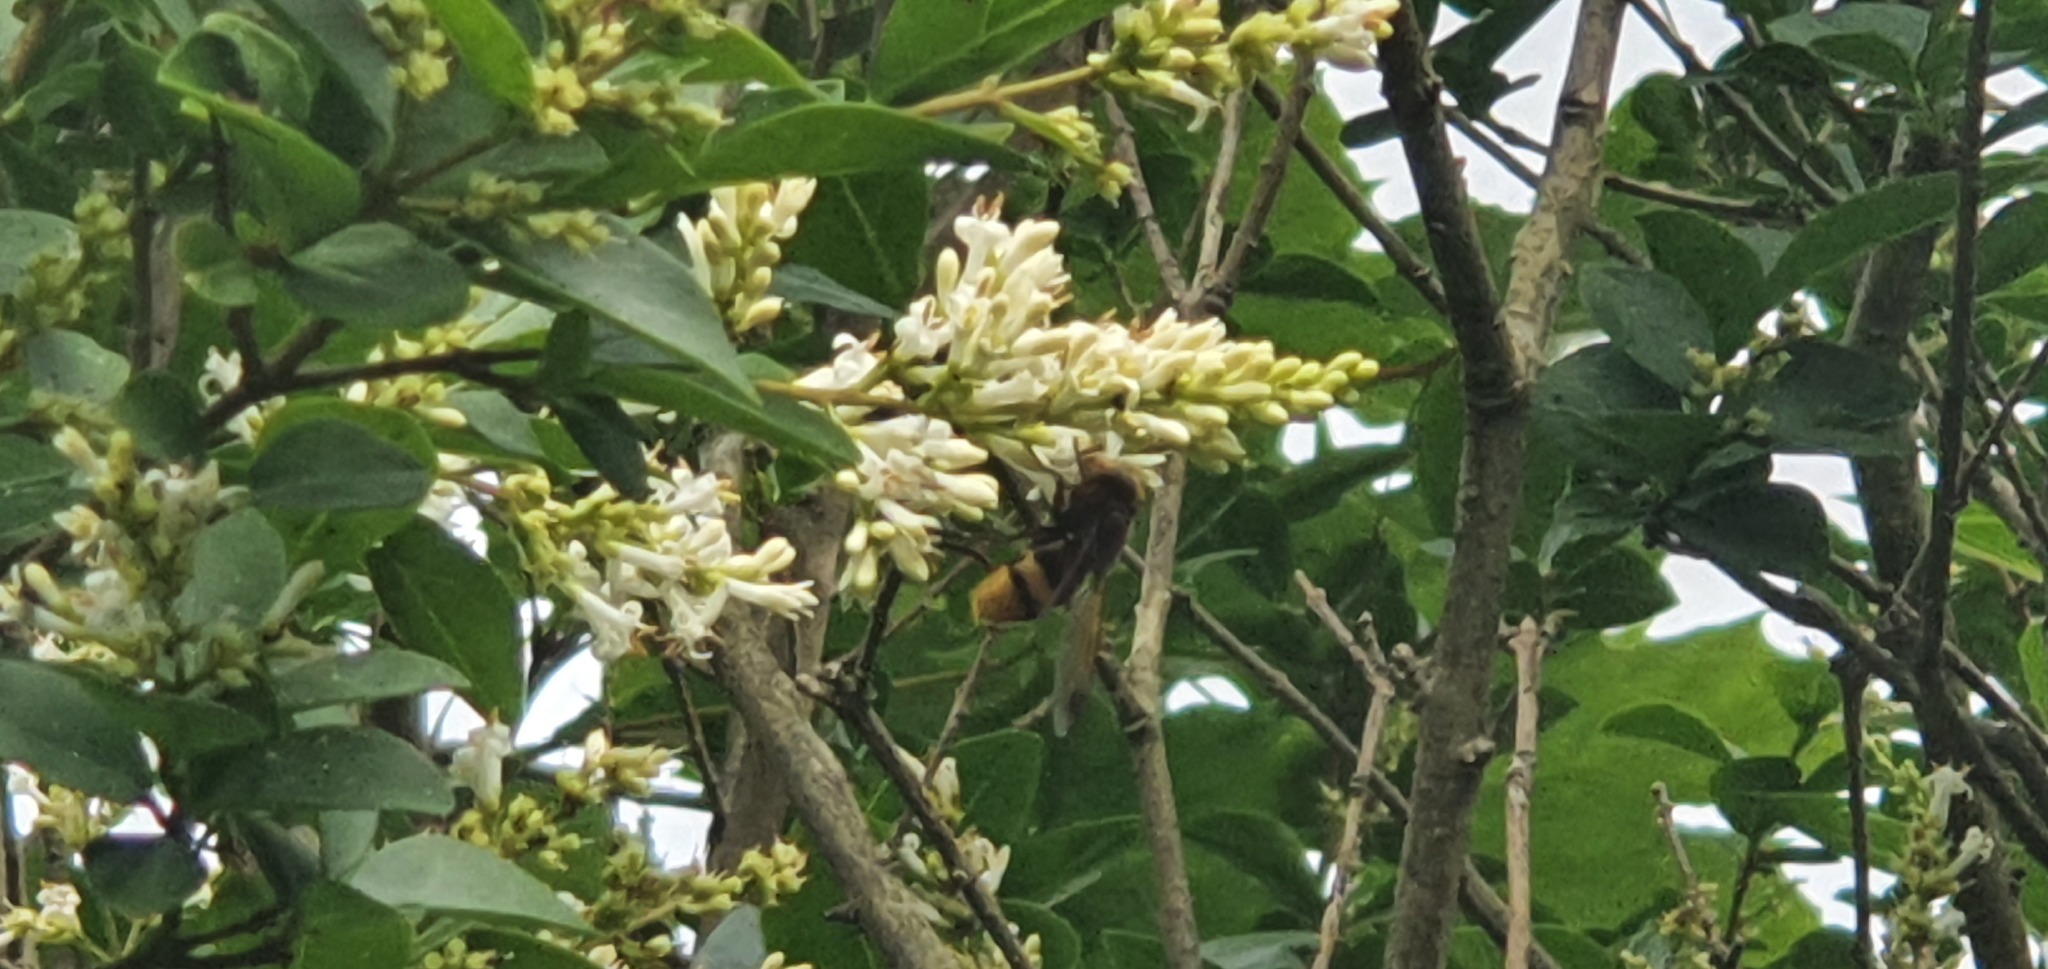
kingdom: Animalia
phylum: Arthropoda
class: Insecta
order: Diptera
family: Syrphidae
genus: Volucella
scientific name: Volucella zonaria
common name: Hornet hoverfly
